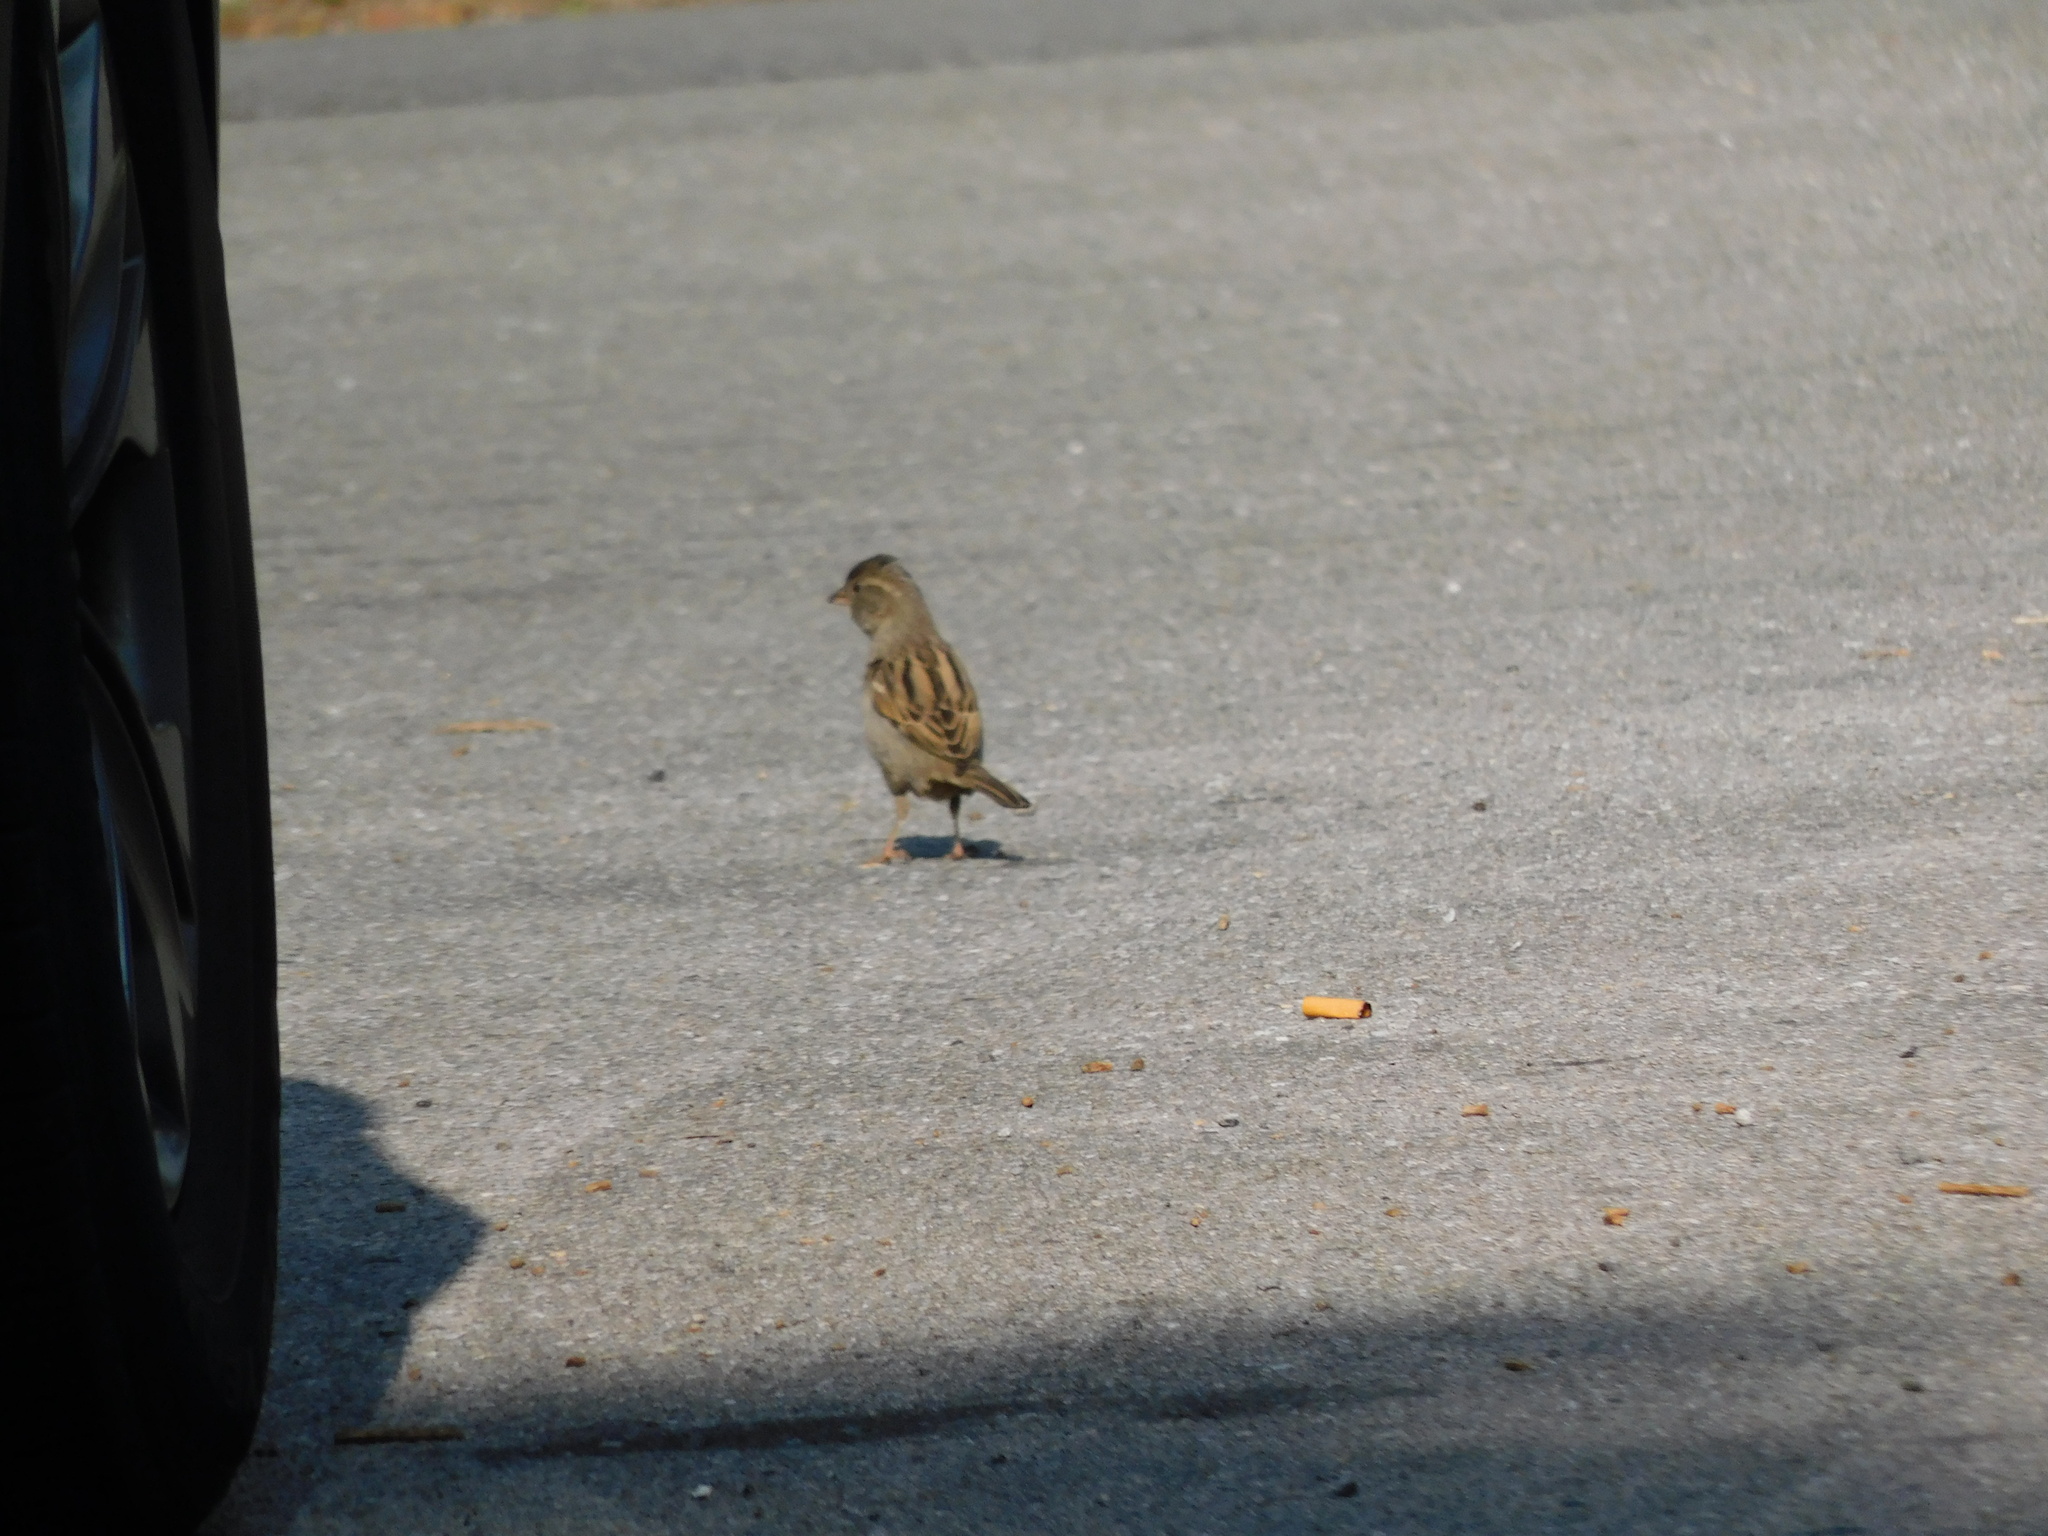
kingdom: Animalia
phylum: Chordata
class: Aves
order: Passeriformes
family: Passeridae
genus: Passer
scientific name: Passer domesticus
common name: House sparrow
